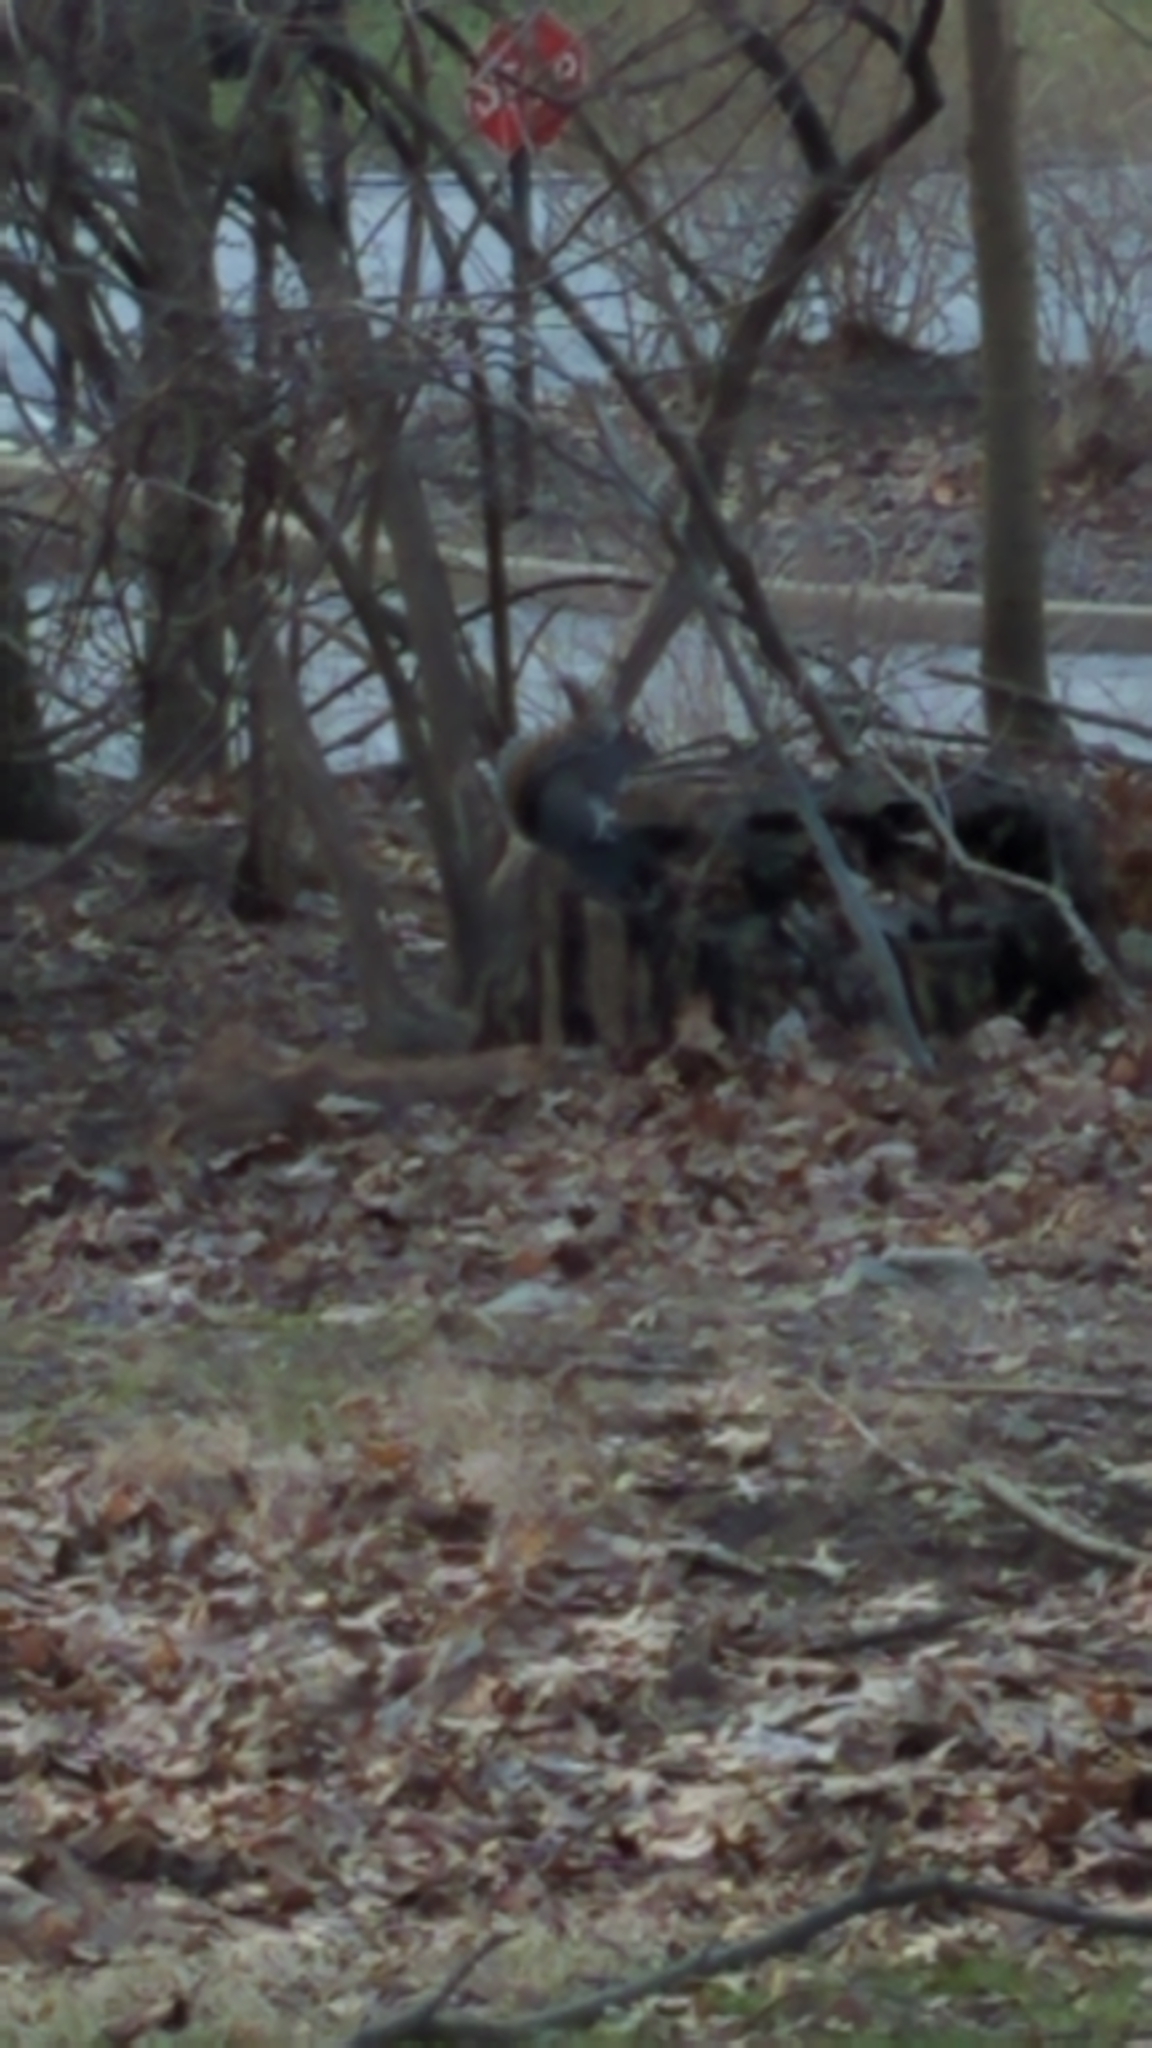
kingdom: Animalia
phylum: Chordata
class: Mammalia
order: Rodentia
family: Sciuridae
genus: Sciurus
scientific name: Sciurus carolinensis
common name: Eastern gray squirrel
